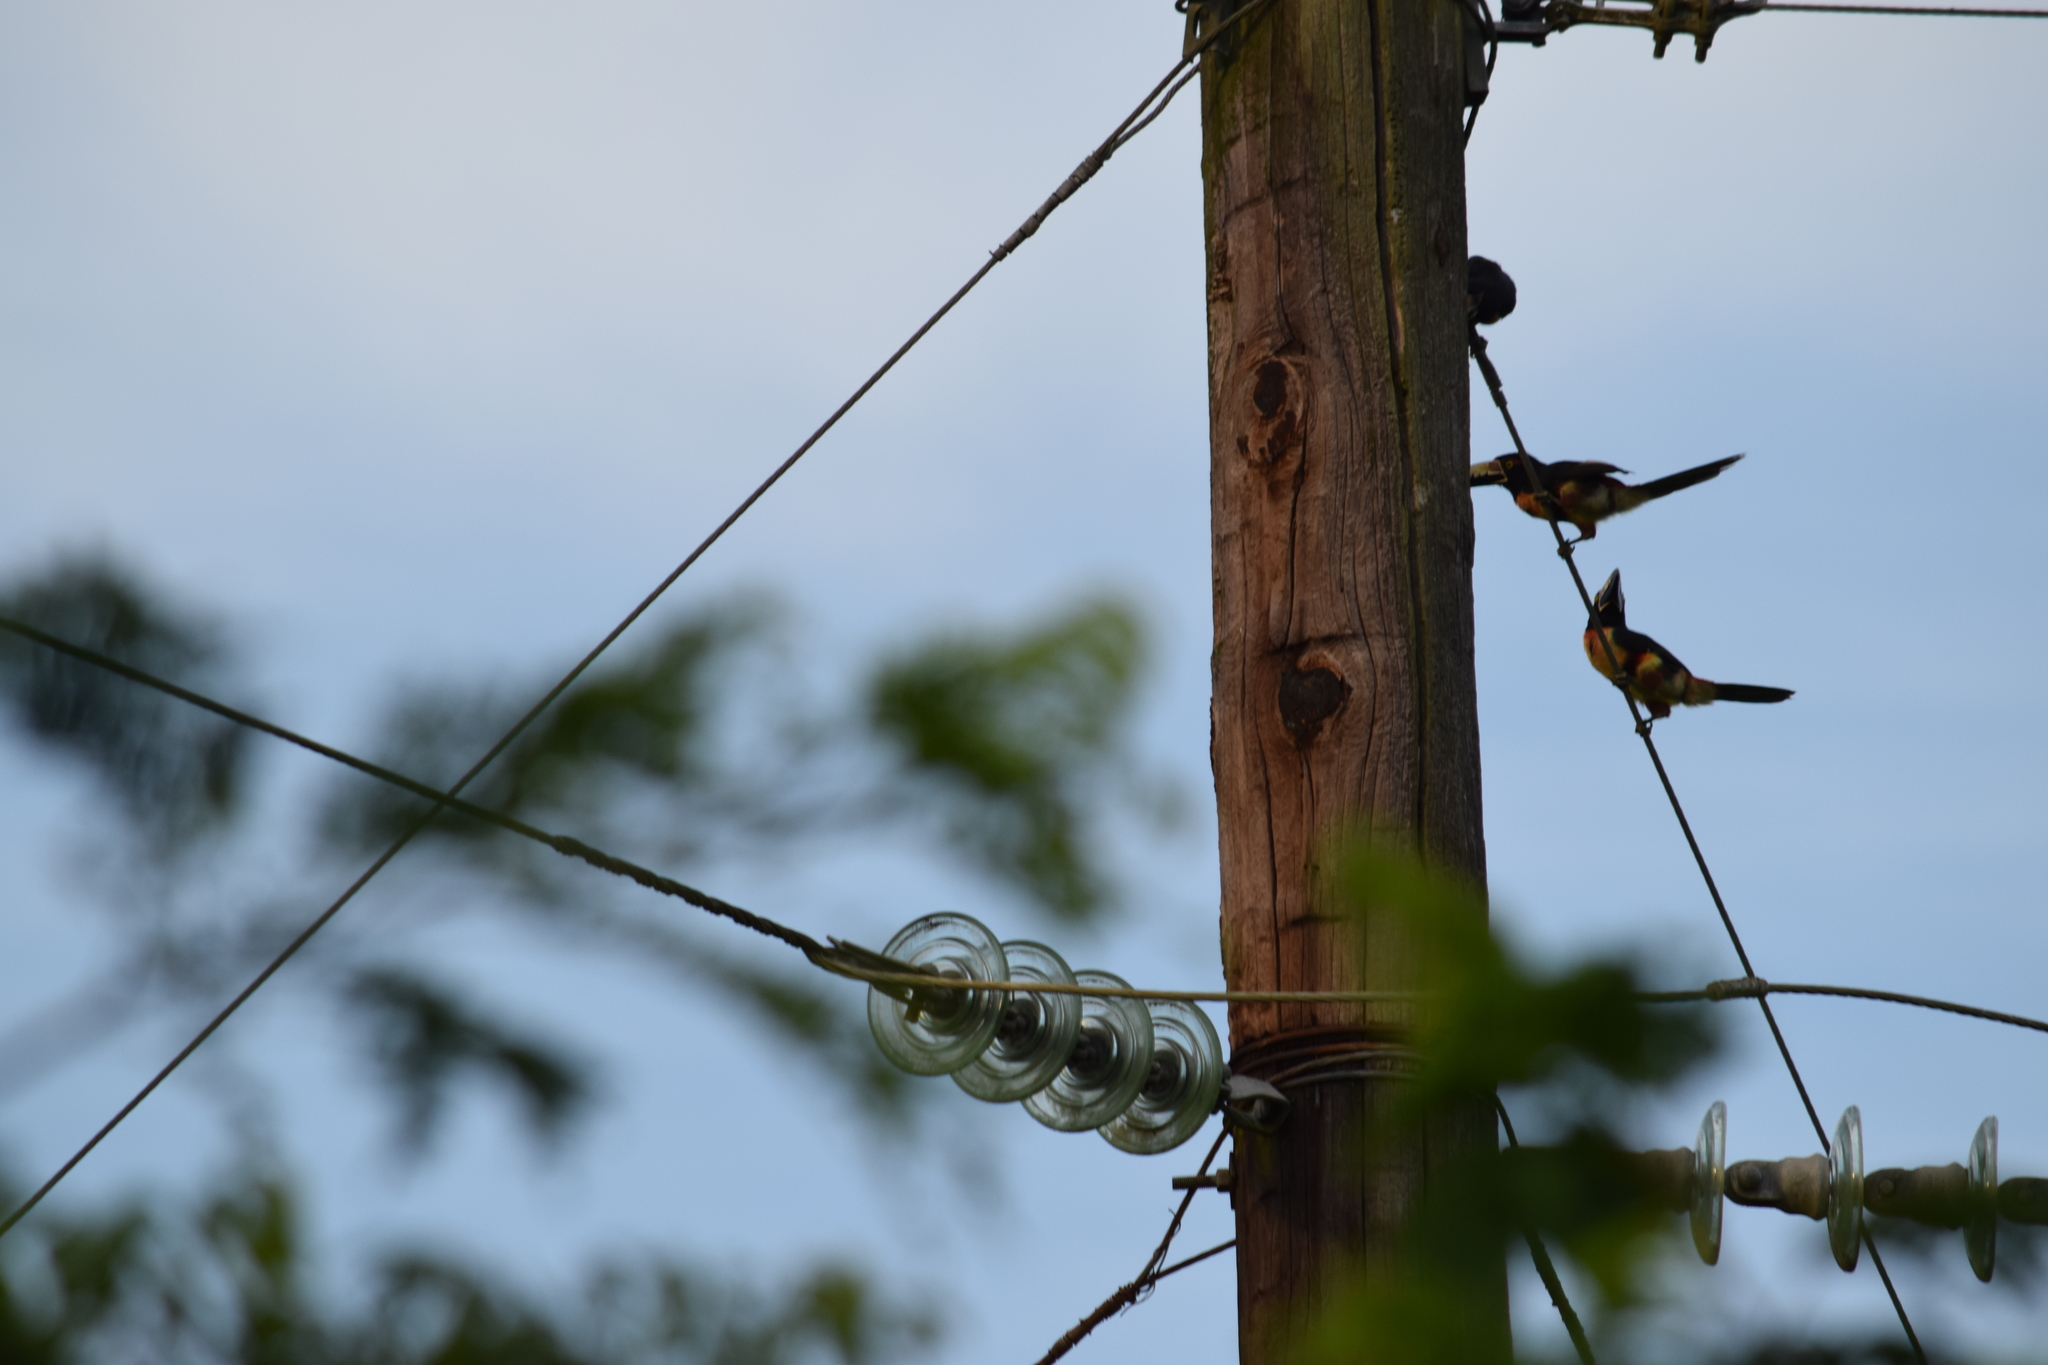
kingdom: Animalia
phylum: Chordata
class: Aves
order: Piciformes
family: Ramphastidae
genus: Pteroglossus
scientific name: Pteroglossus torquatus
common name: Collared aracari
